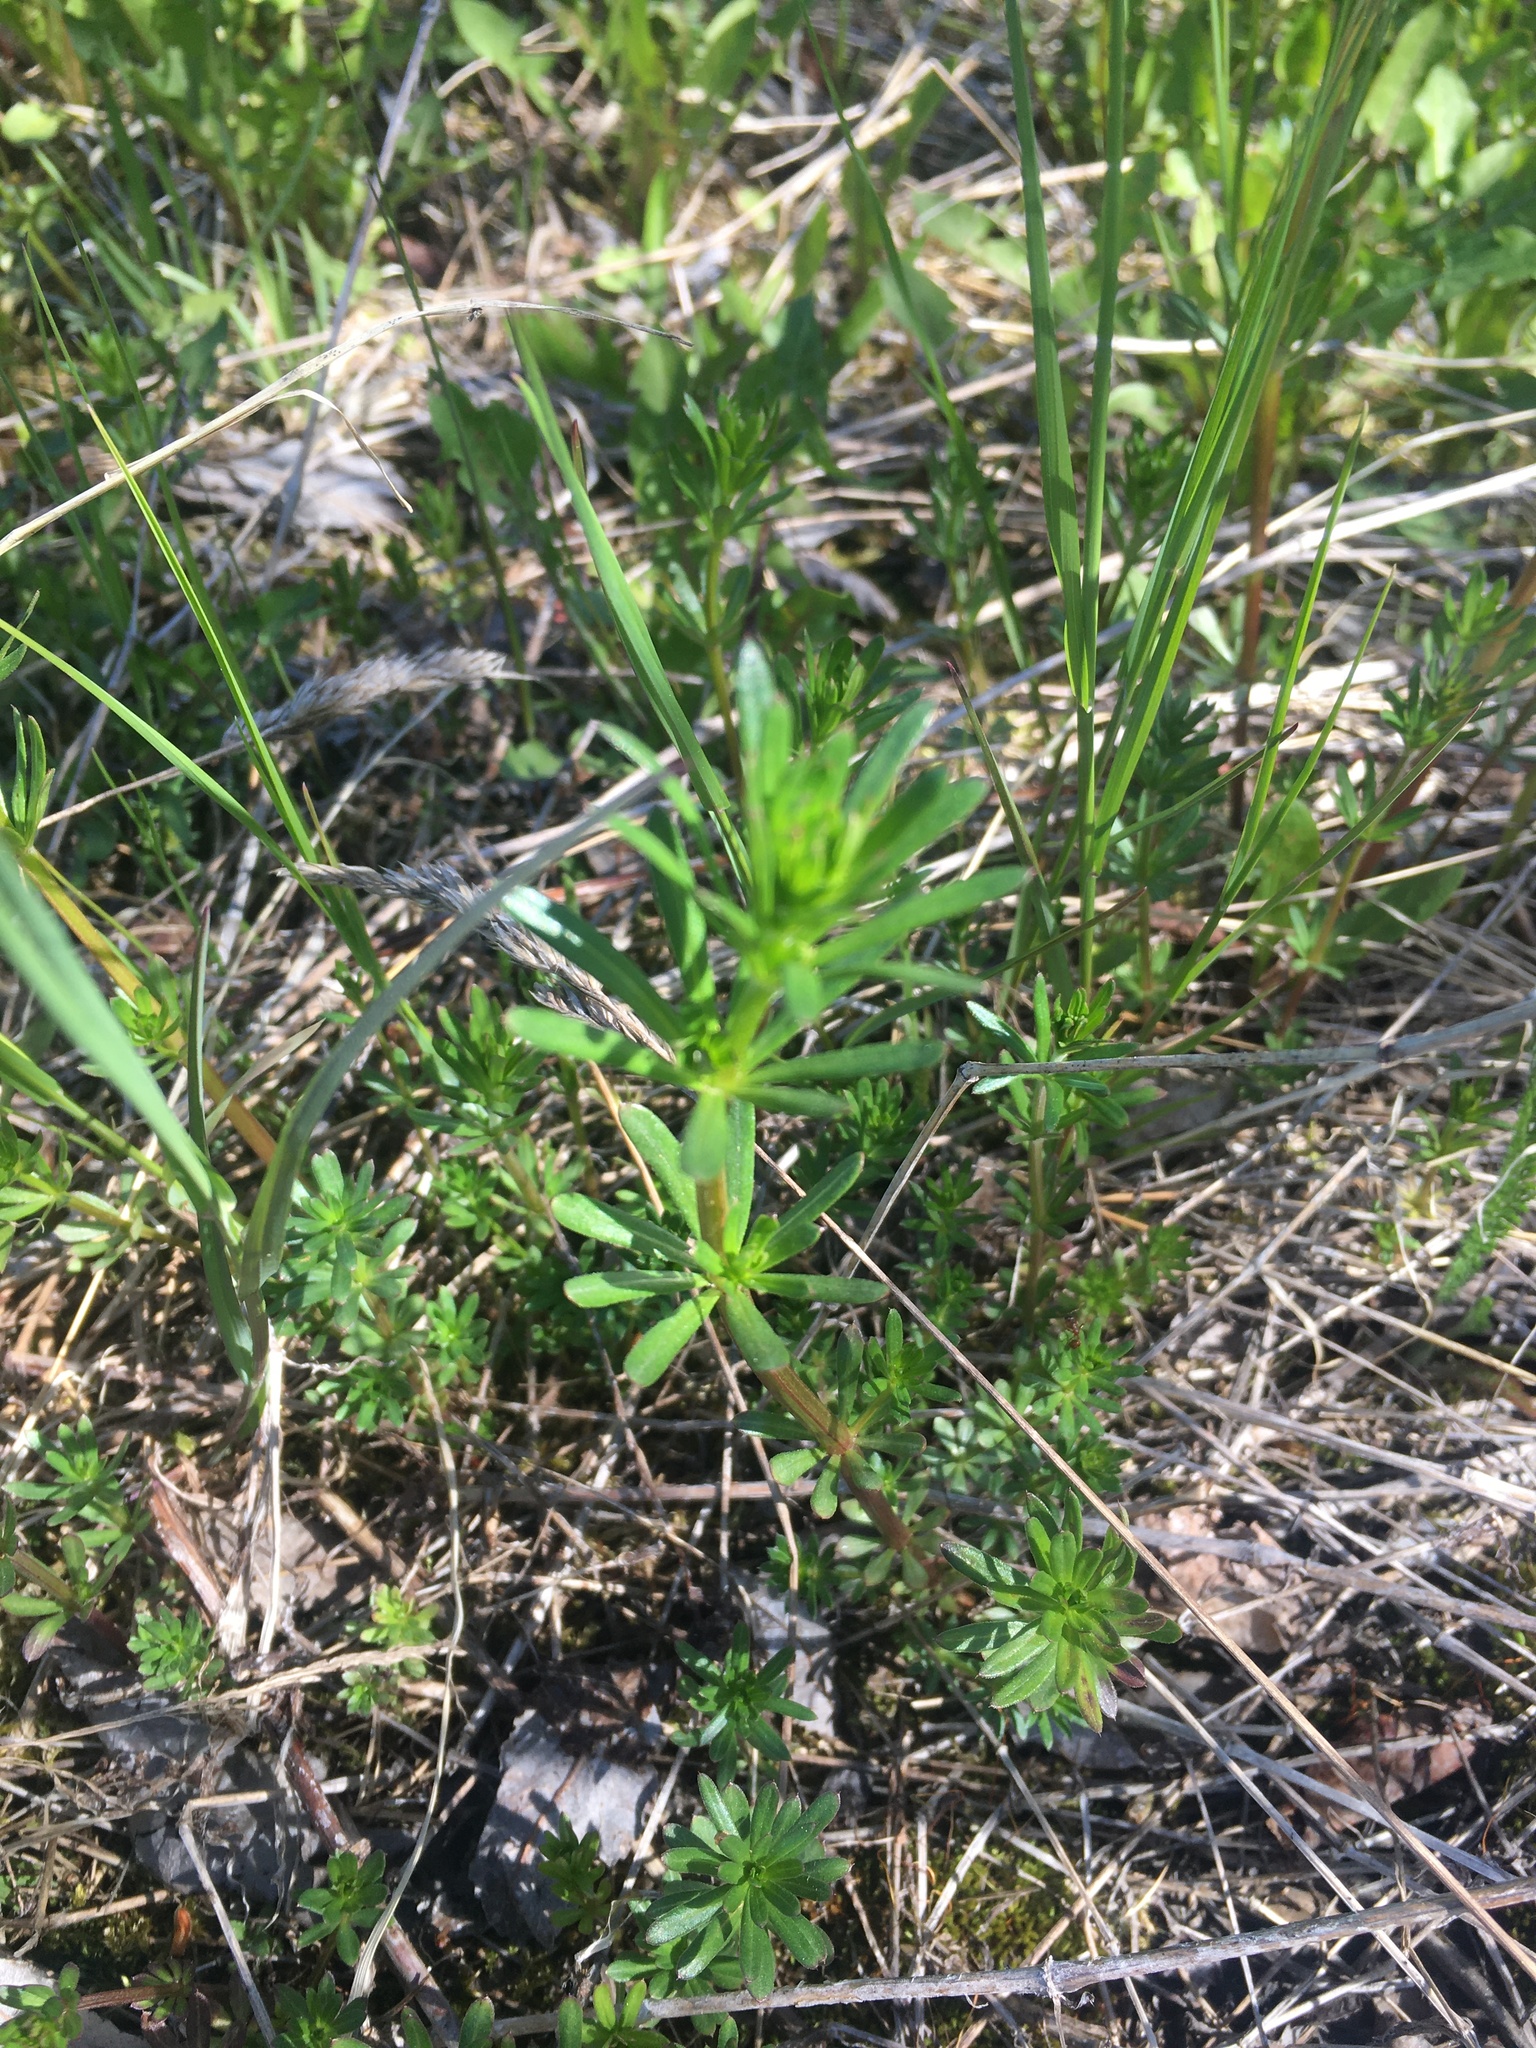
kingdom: Plantae
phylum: Tracheophyta
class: Magnoliopsida
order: Gentianales
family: Rubiaceae
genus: Galium
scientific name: Galium mollugo
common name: Hedge bedstraw
